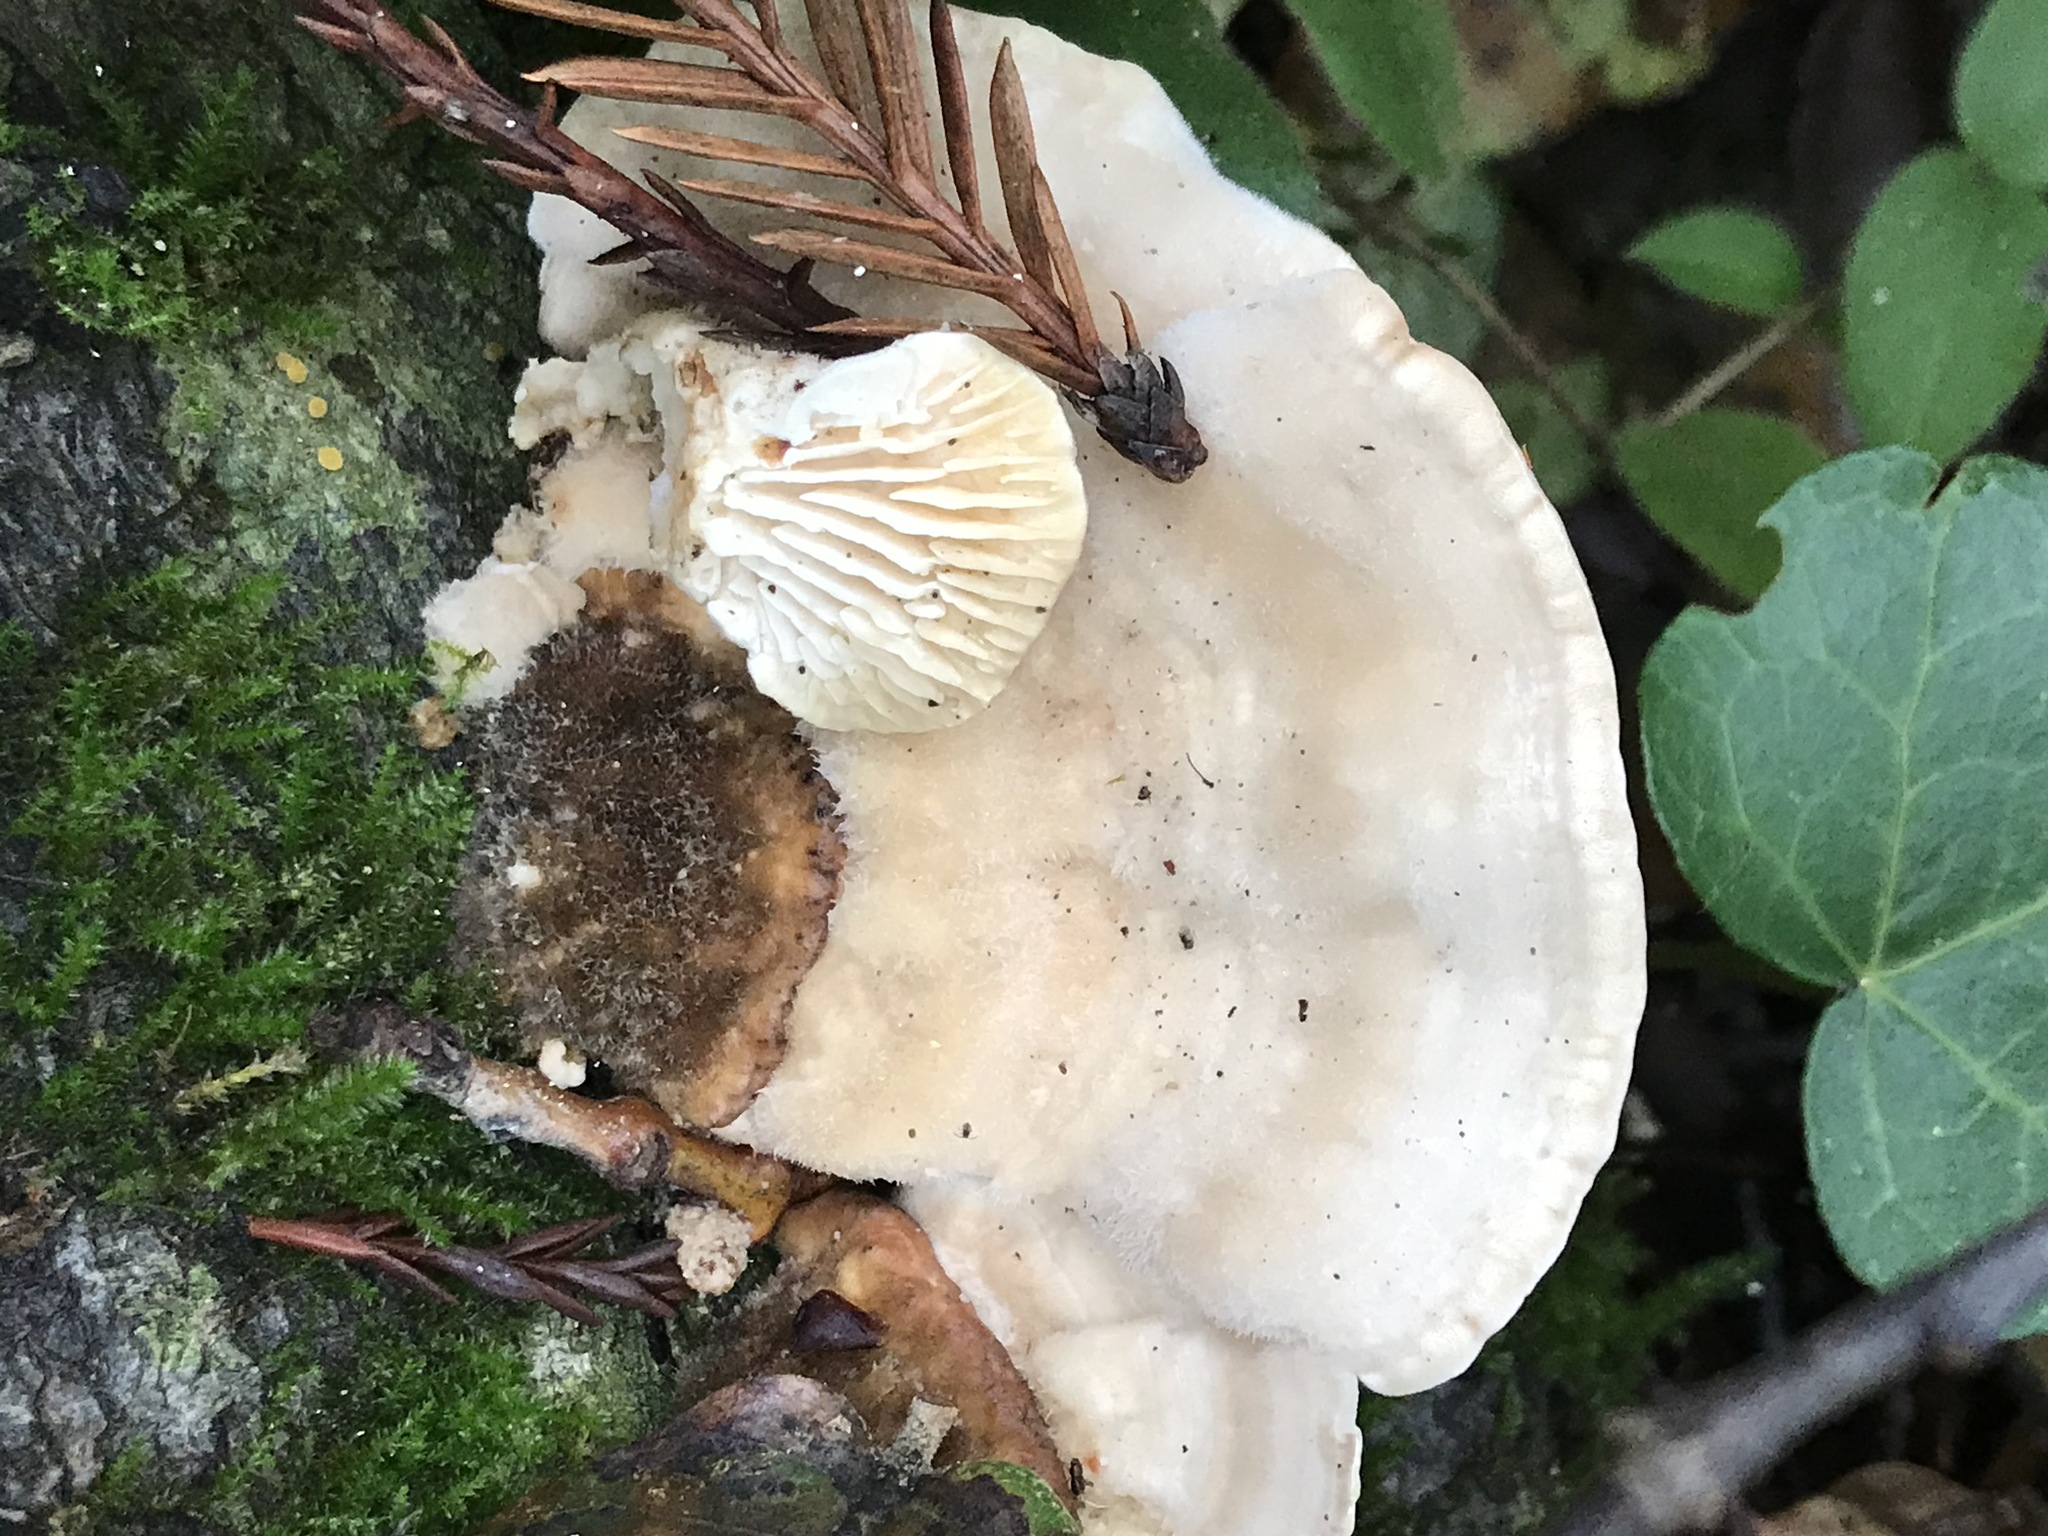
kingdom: Fungi
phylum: Basidiomycota
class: Agaricomycetes
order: Polyporales
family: Polyporaceae
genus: Lenzites
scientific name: Lenzites betulinus
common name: Birch mazegill
